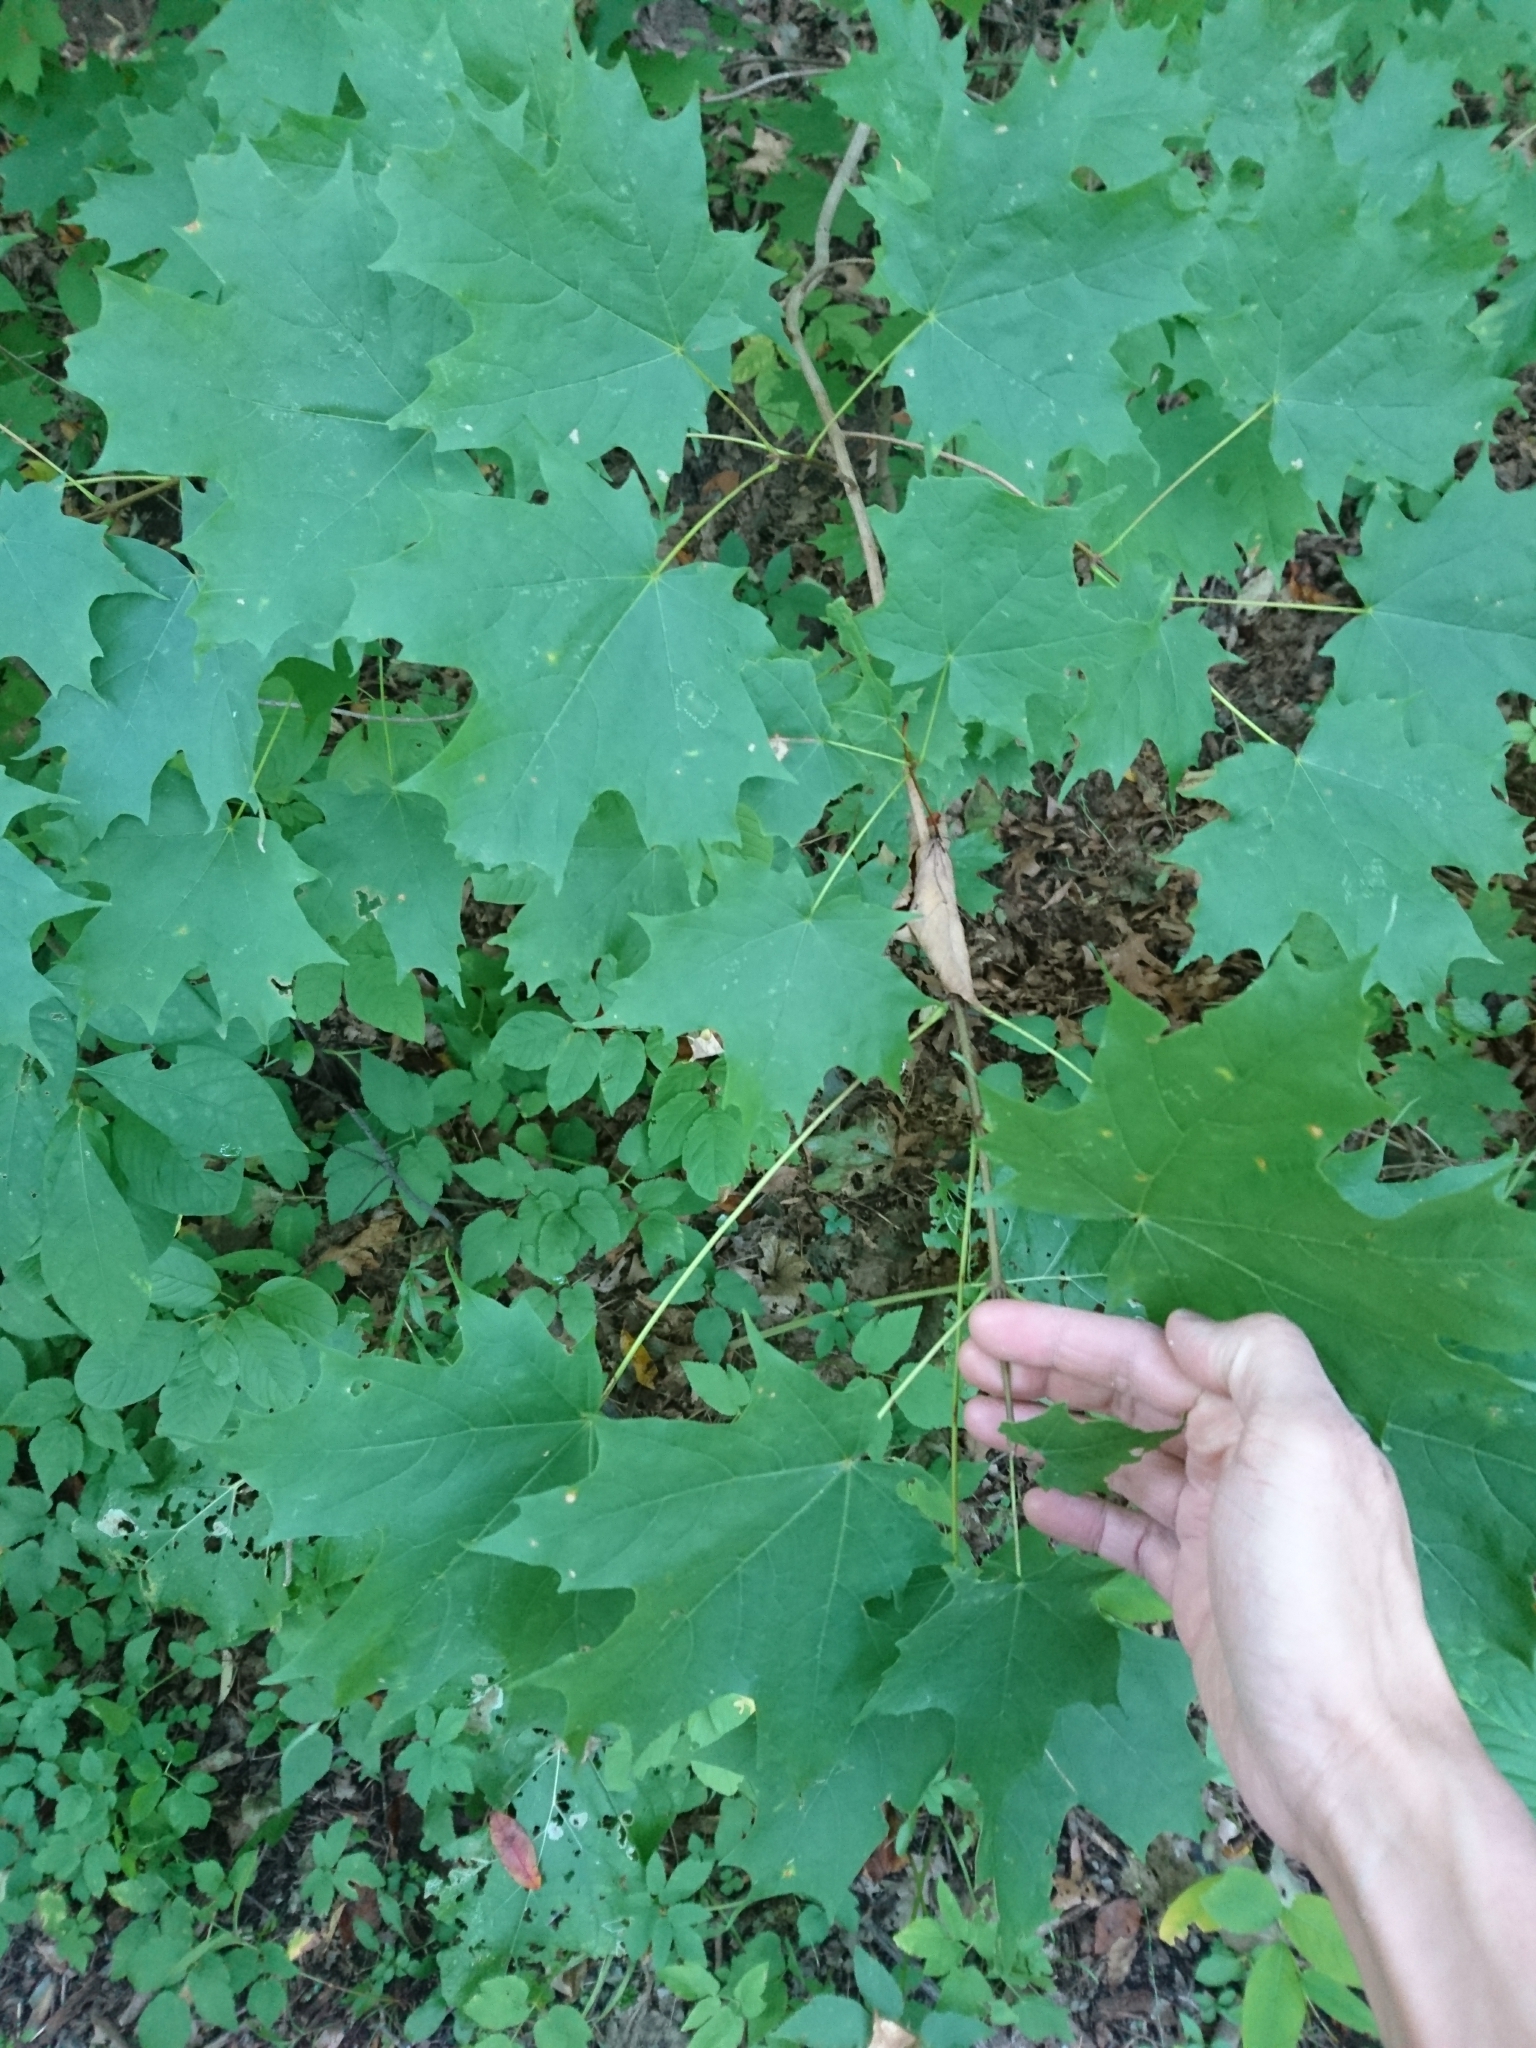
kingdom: Plantae
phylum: Tracheophyta
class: Magnoliopsida
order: Sapindales
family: Sapindaceae
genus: Acer
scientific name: Acer saccharum
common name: Sugar maple
